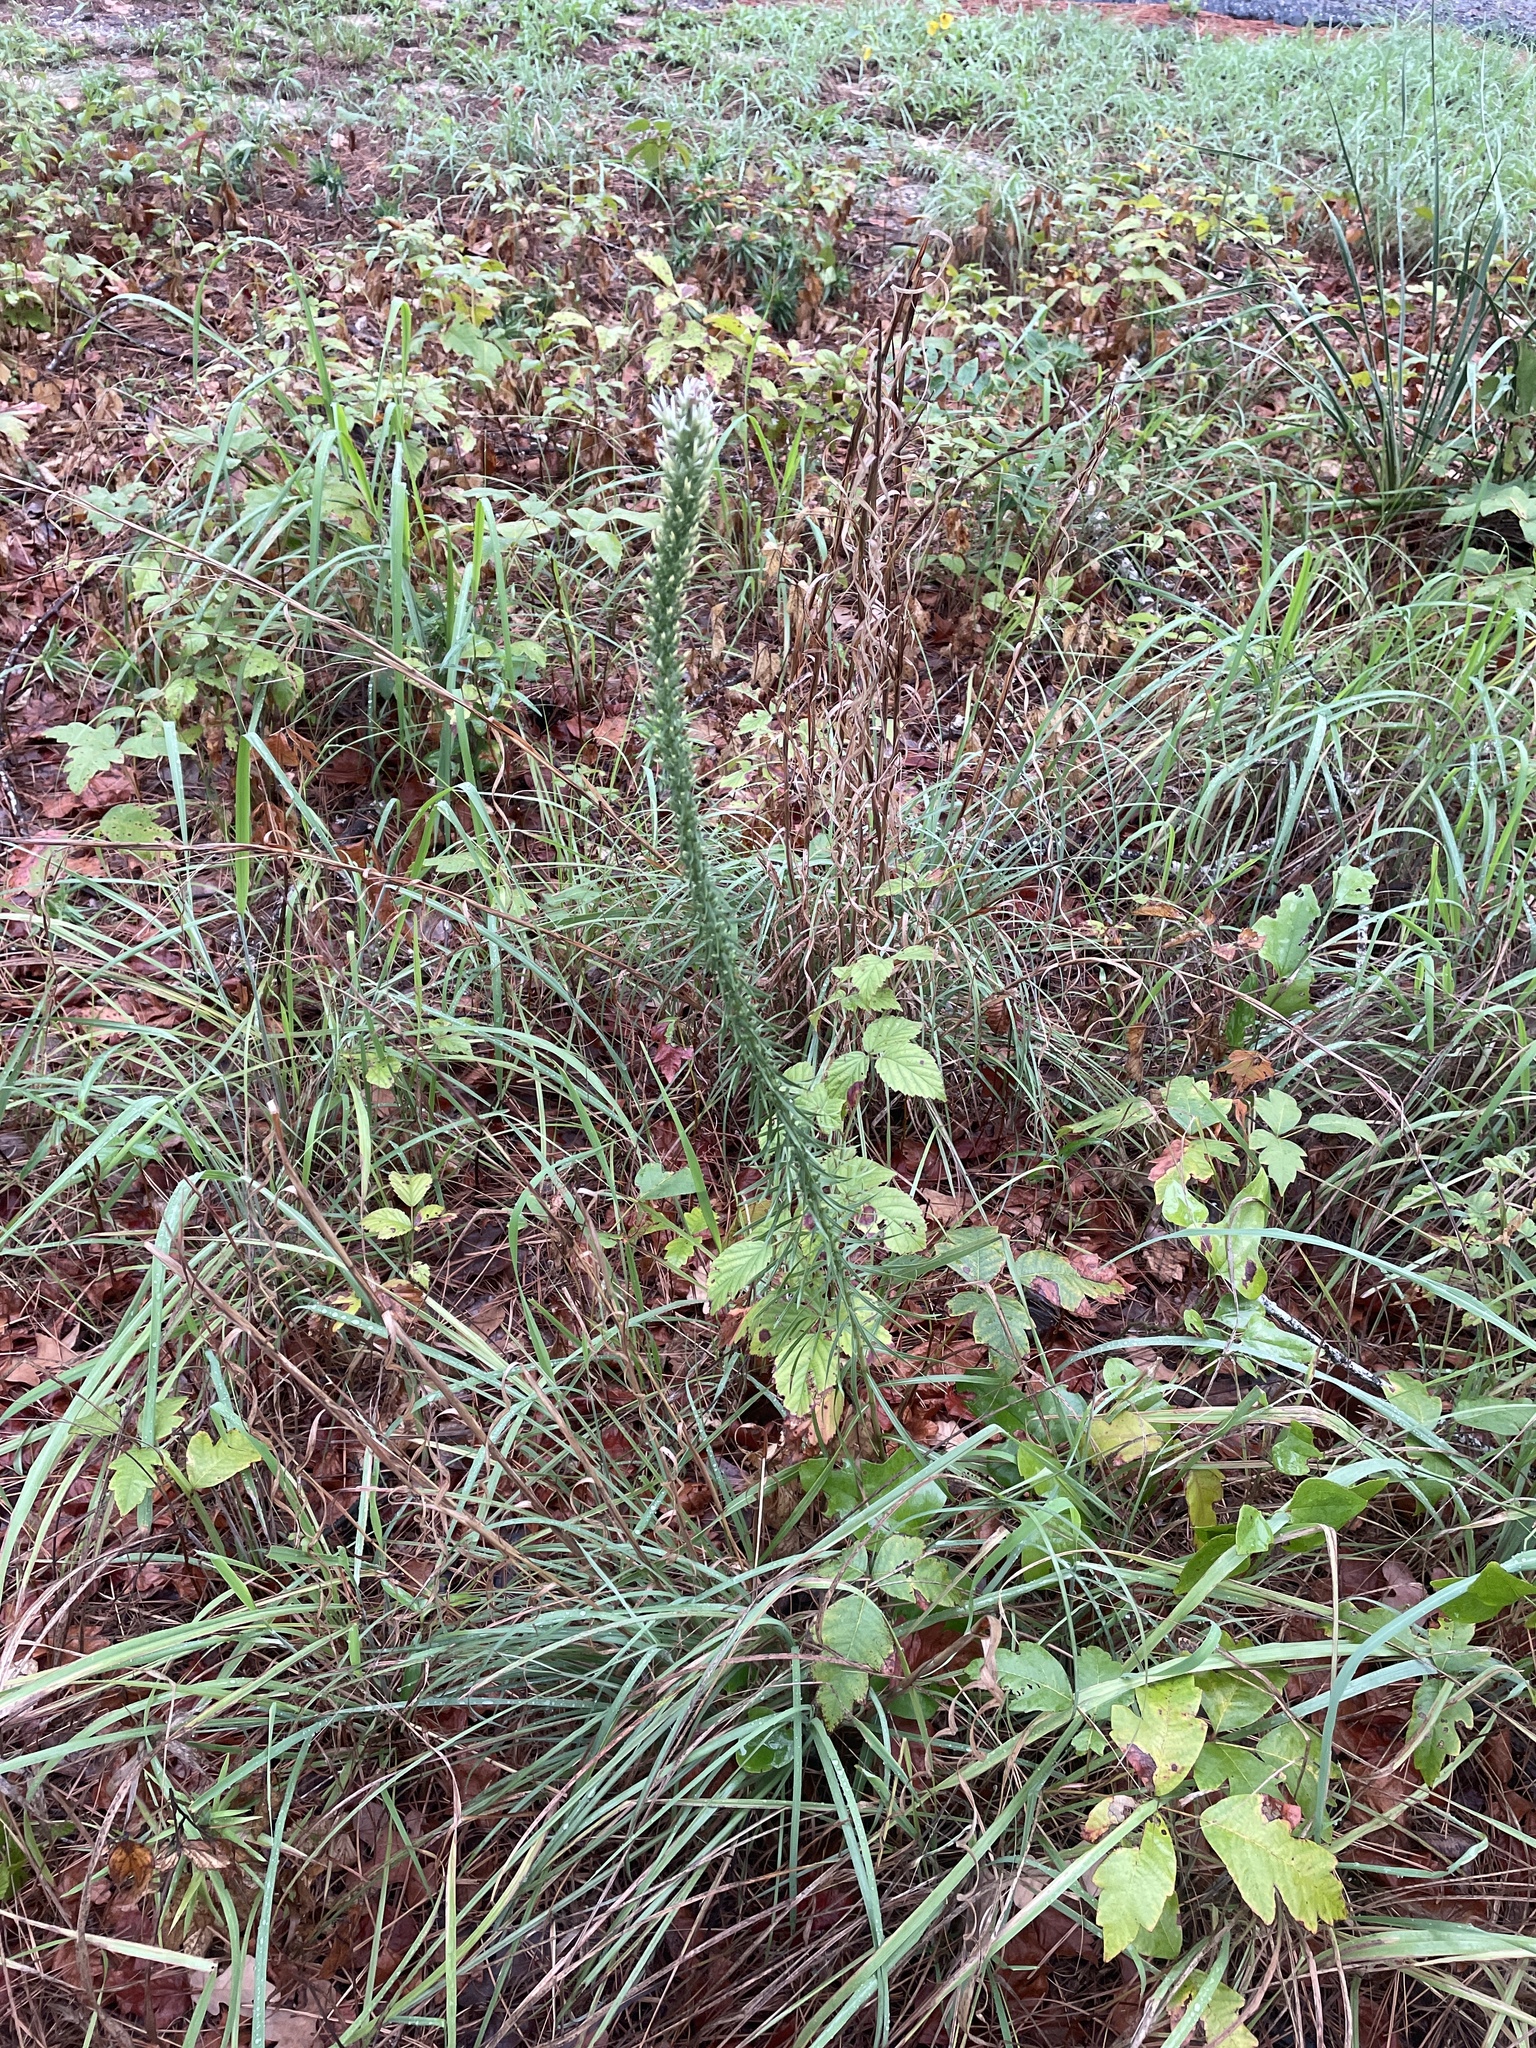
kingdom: Plantae
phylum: Tracheophyta
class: Magnoliopsida
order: Asterales
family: Asteraceae
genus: Liatris
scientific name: Liatris bridgesii
